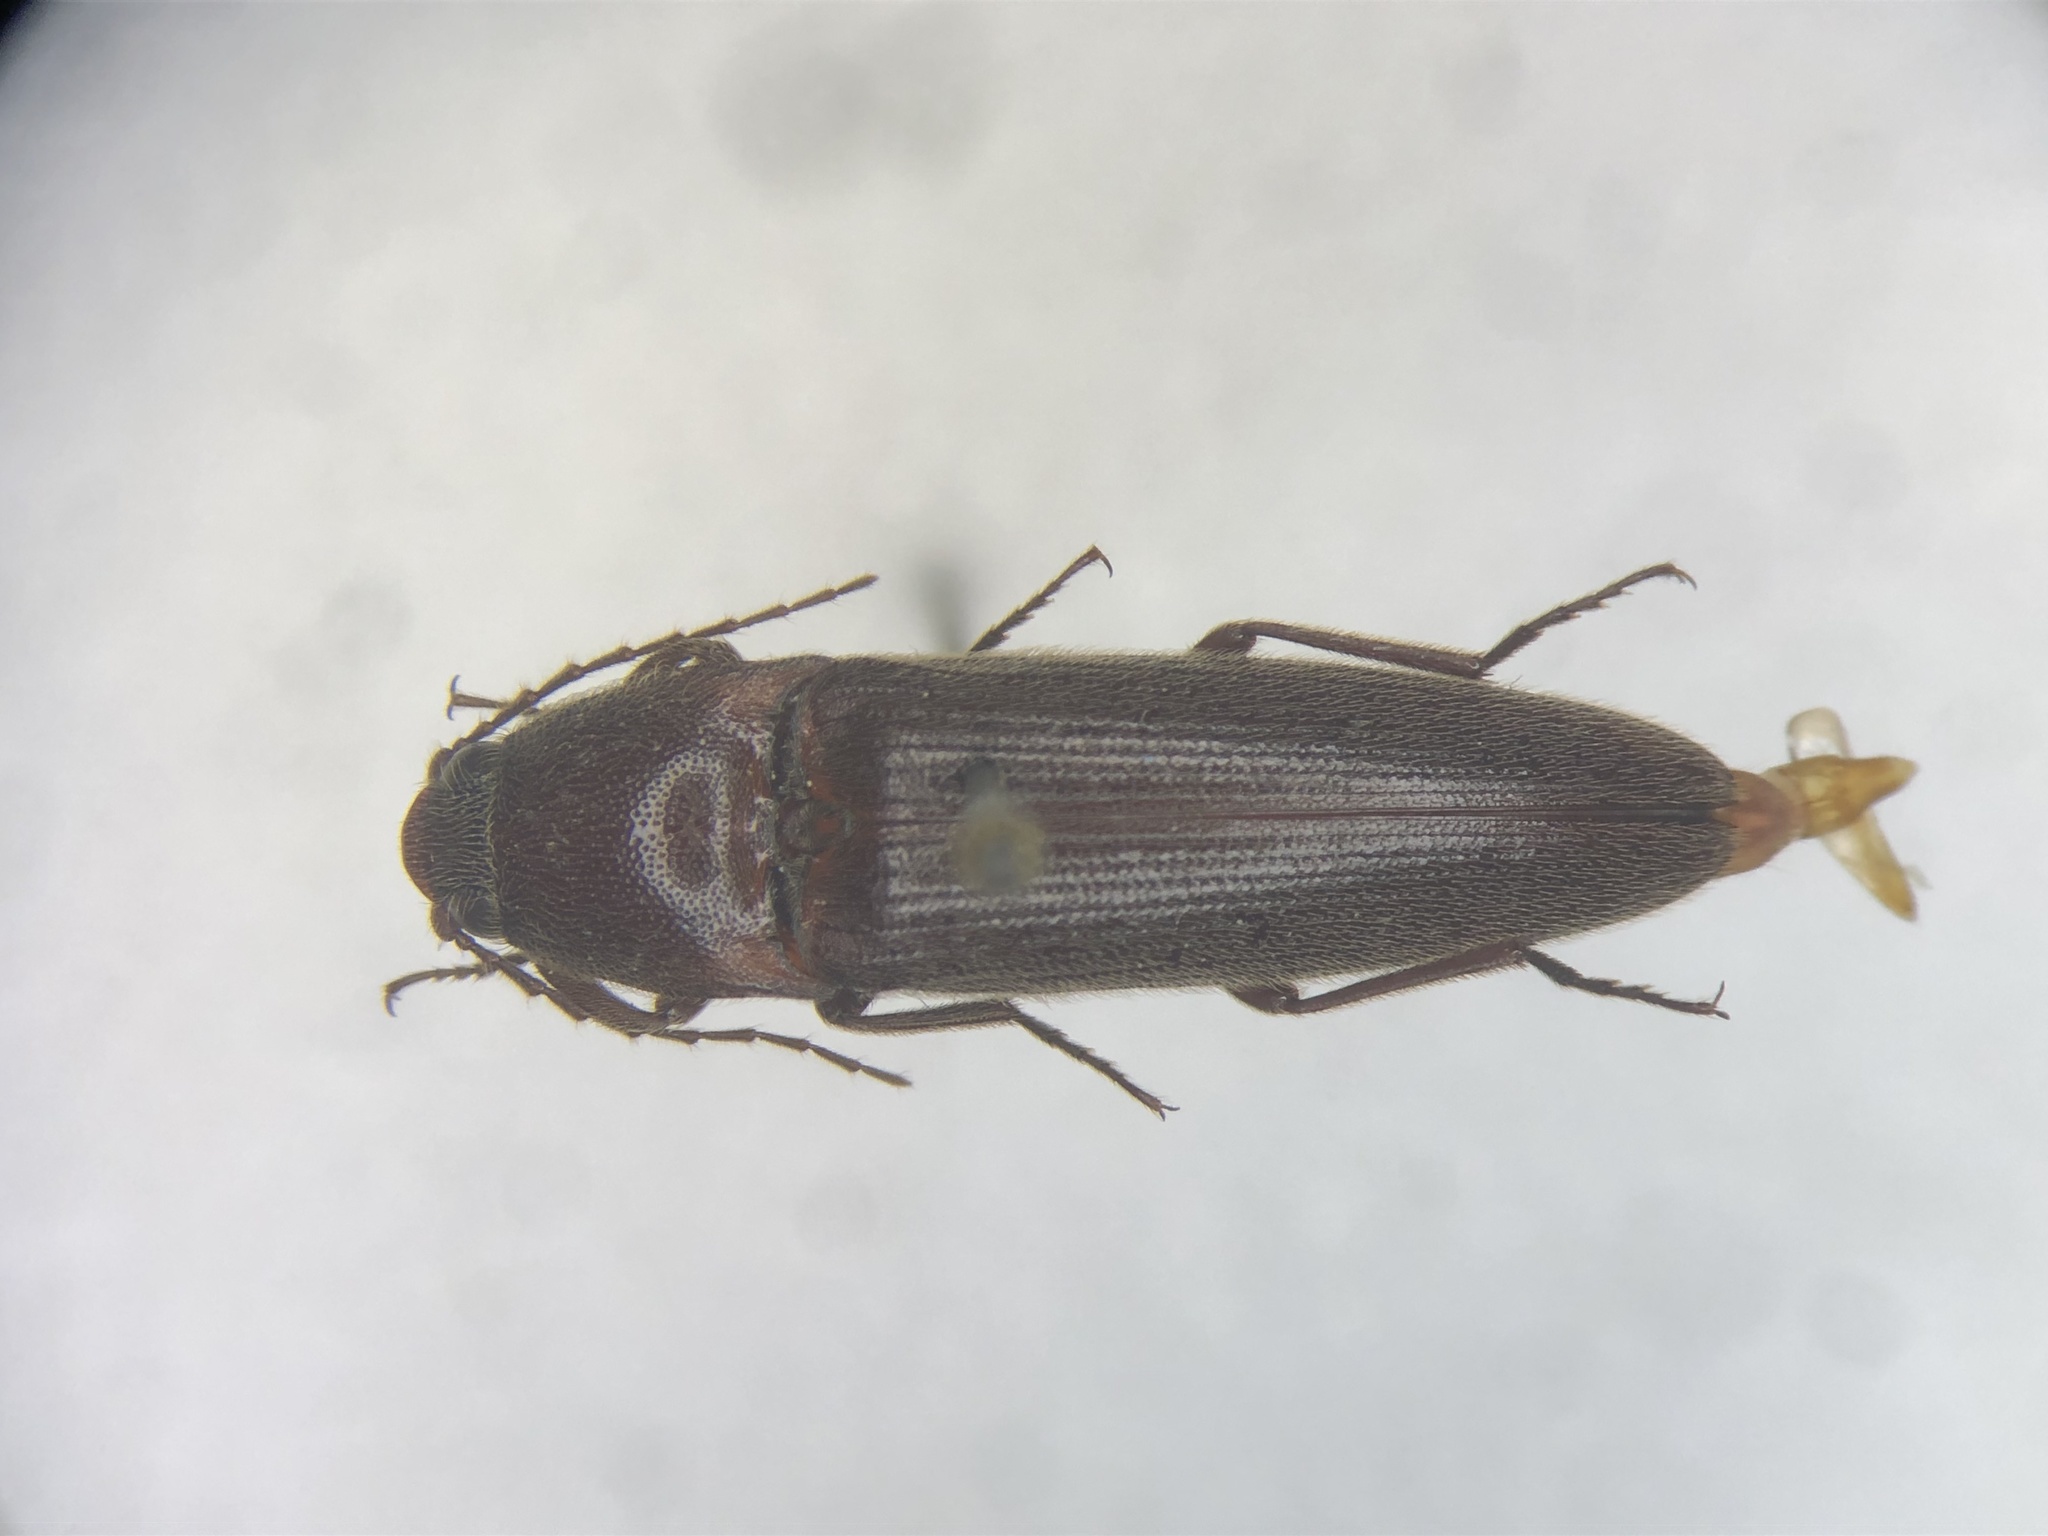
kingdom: Animalia
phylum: Arthropoda
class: Insecta
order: Coleoptera
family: Elateridae
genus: Melanotus
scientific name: Melanotus decumanus
